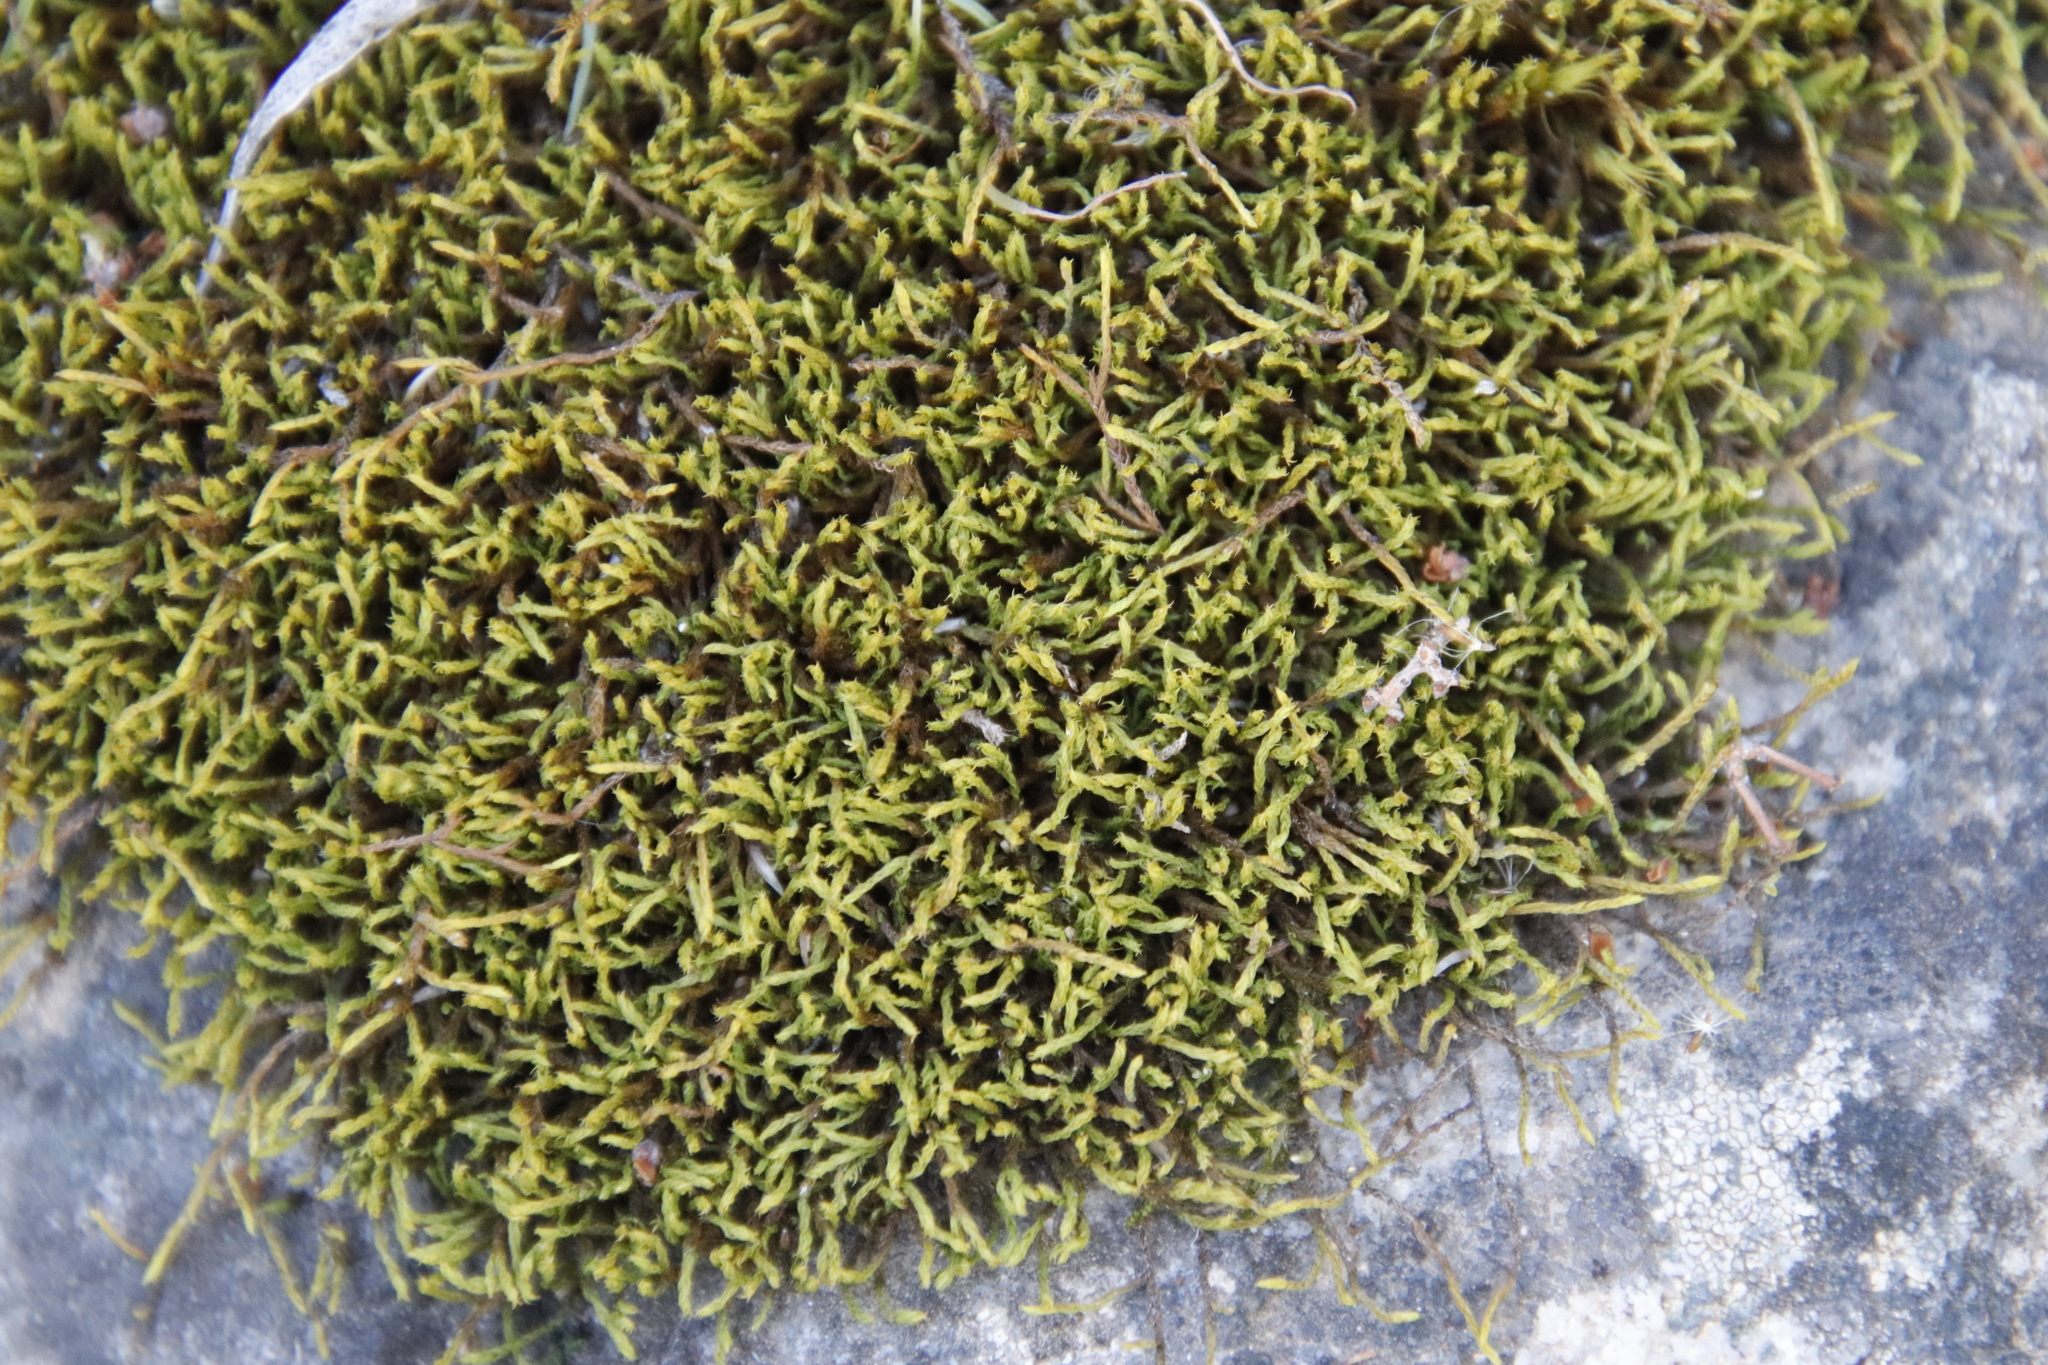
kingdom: Plantae
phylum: Bryophyta
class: Bryopsida
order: Pottiales
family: Pottiaceae
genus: Triquetrella
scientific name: Triquetrella mxinwana
